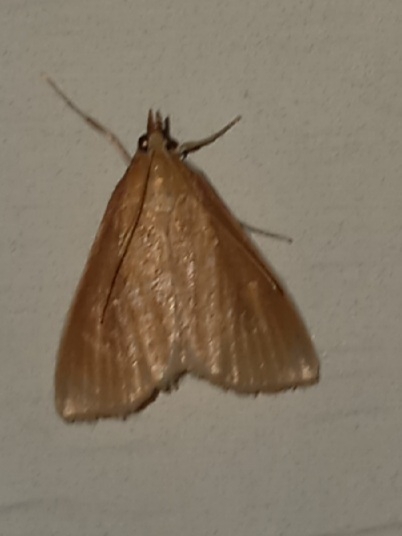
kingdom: Animalia
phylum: Arthropoda
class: Insecta
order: Lepidoptera
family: Crambidae
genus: Nascia
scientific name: Nascia acutellus
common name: Streaked orange moth
